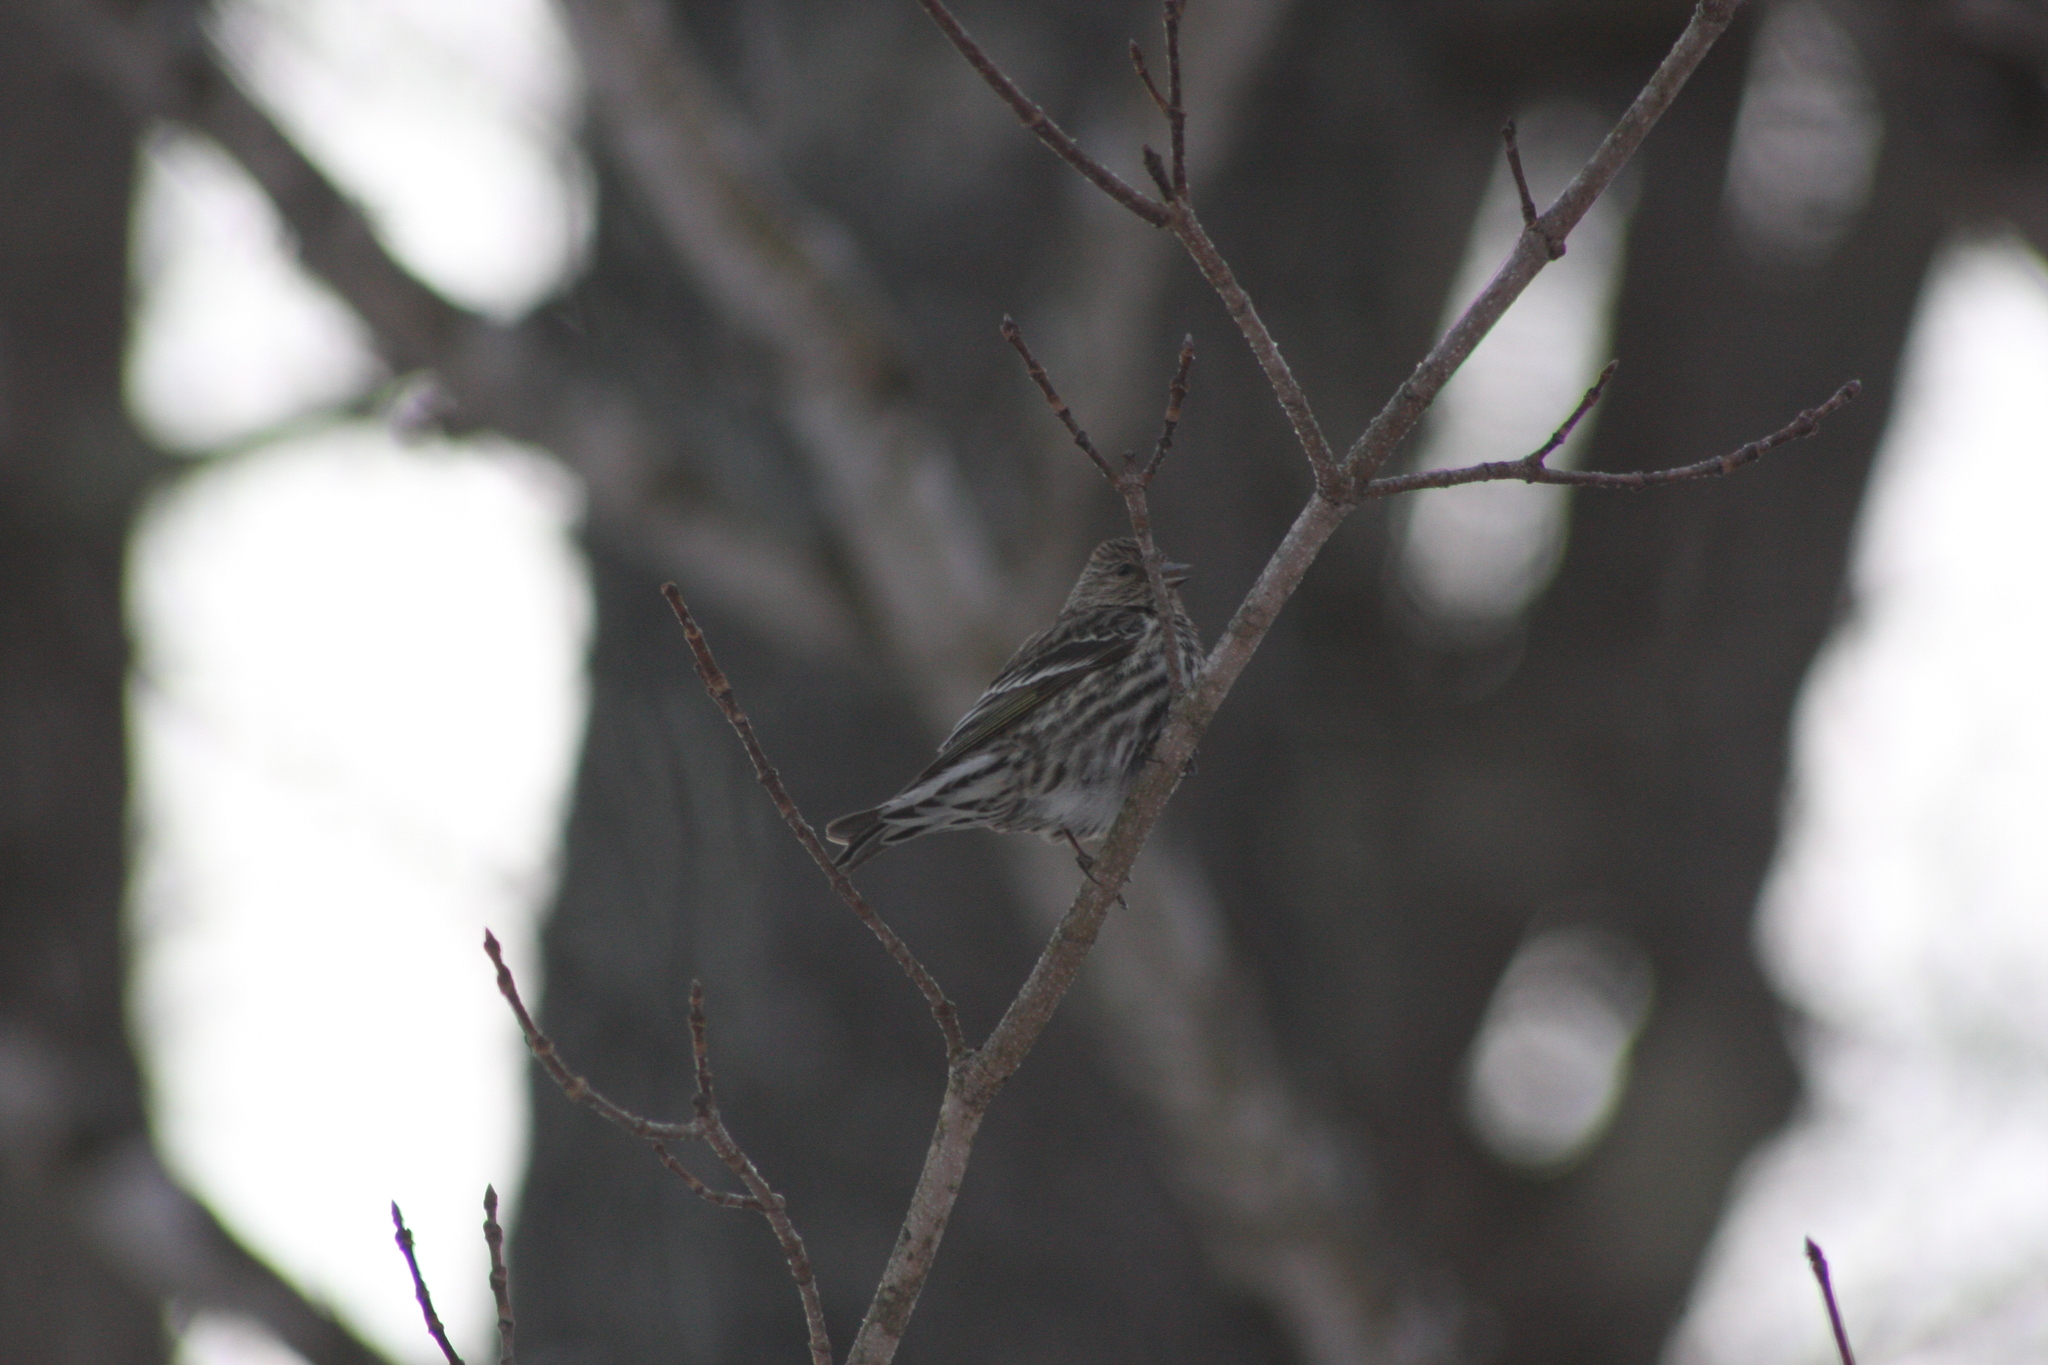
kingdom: Animalia
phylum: Chordata
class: Aves
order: Passeriformes
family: Fringillidae
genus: Spinus
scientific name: Spinus pinus
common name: Pine siskin
